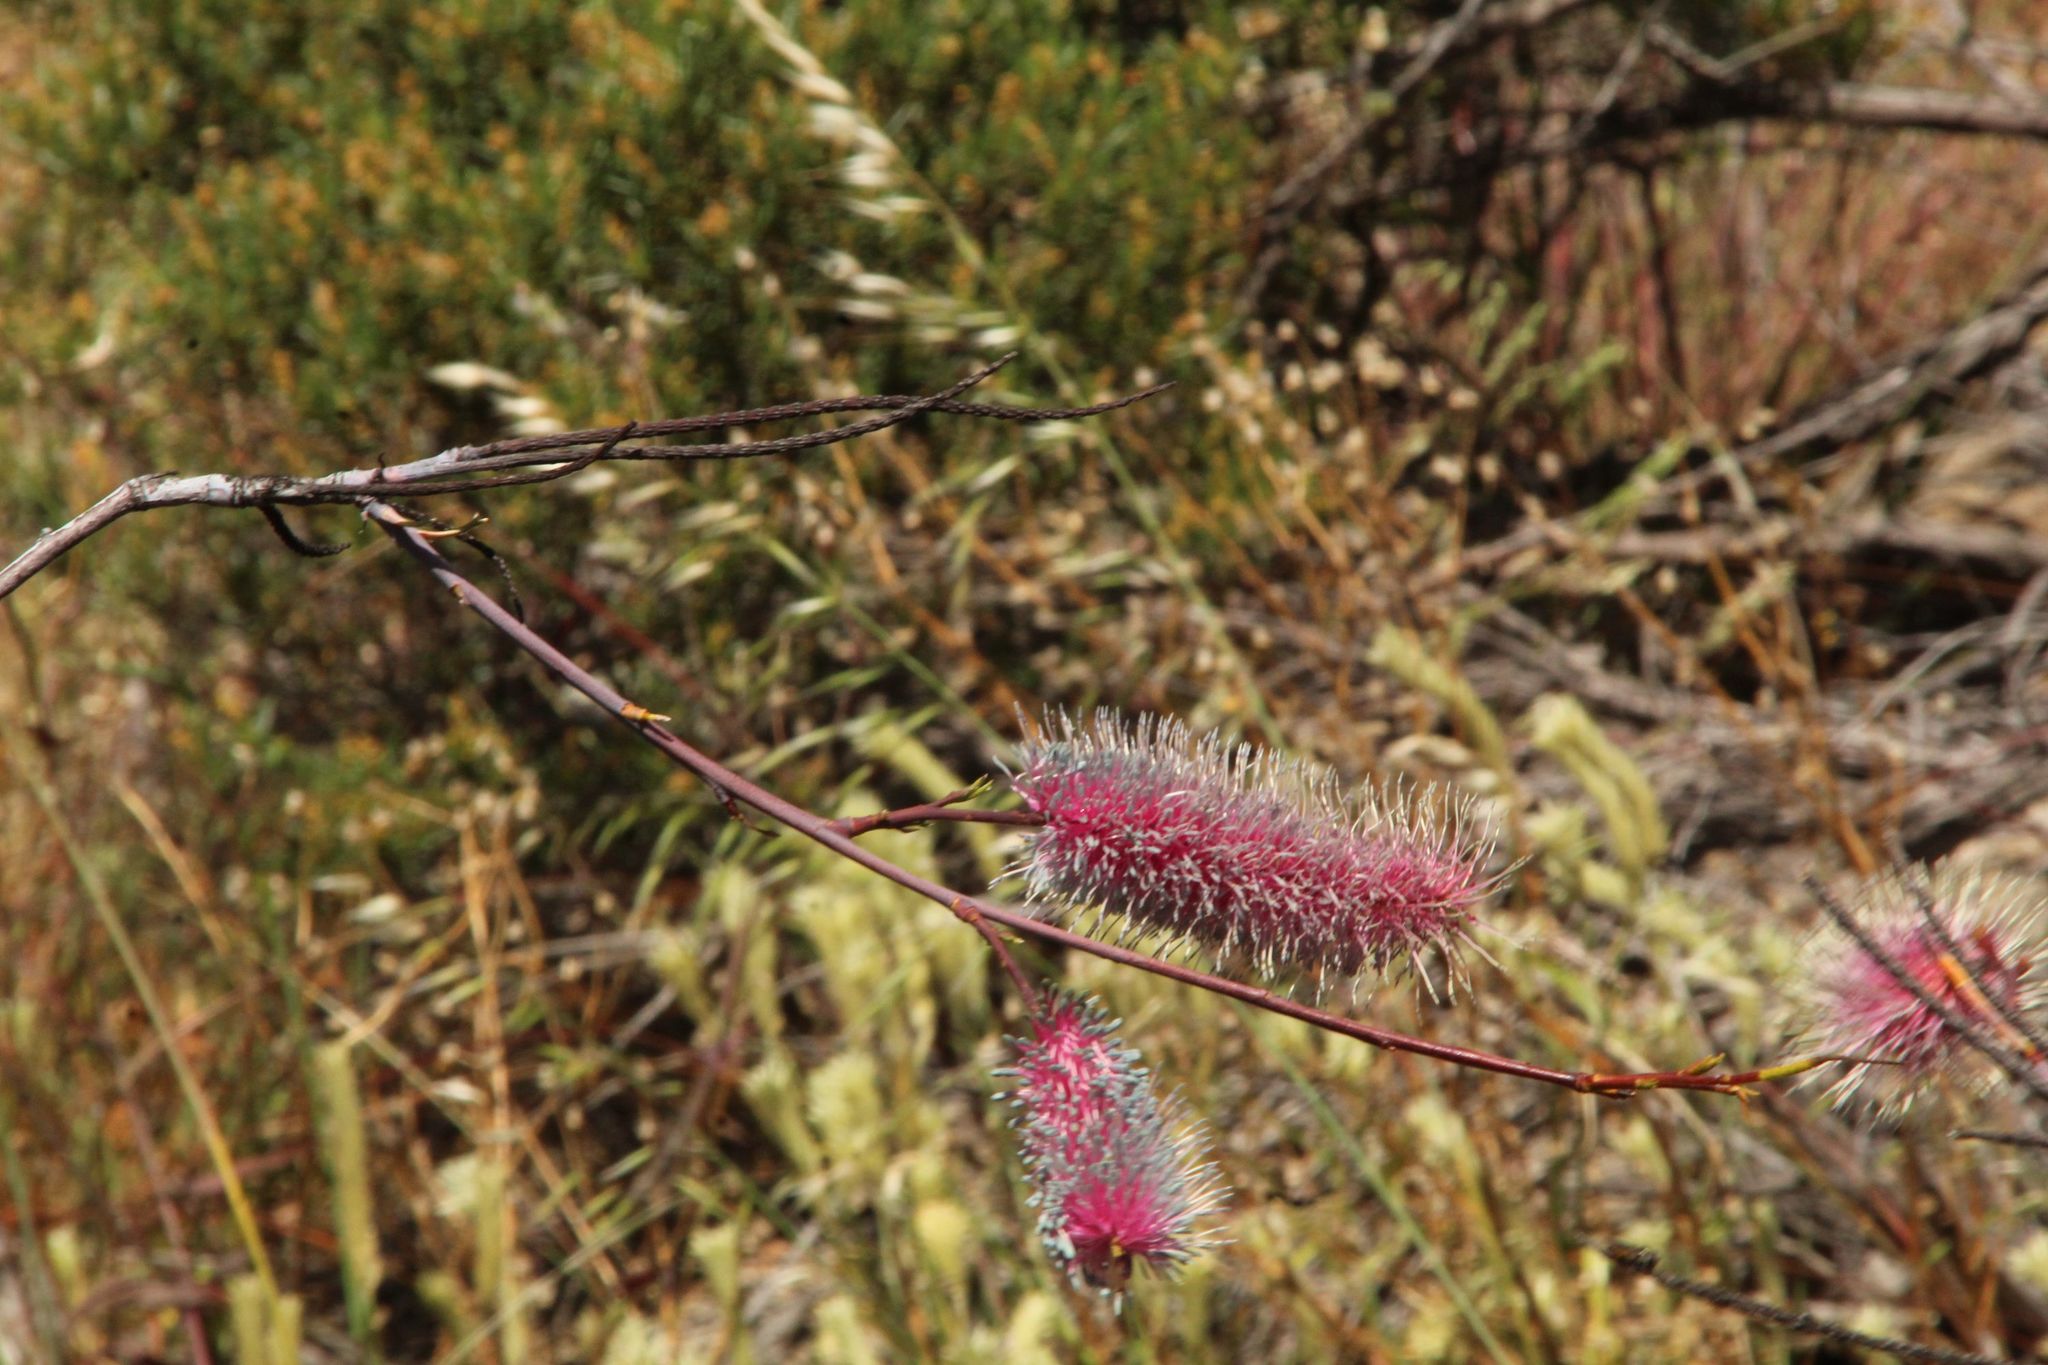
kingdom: Plantae
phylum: Tracheophyta
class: Magnoliopsida
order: Proteales
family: Proteaceae
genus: Grevillea
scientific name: Grevillea petrophiloides
